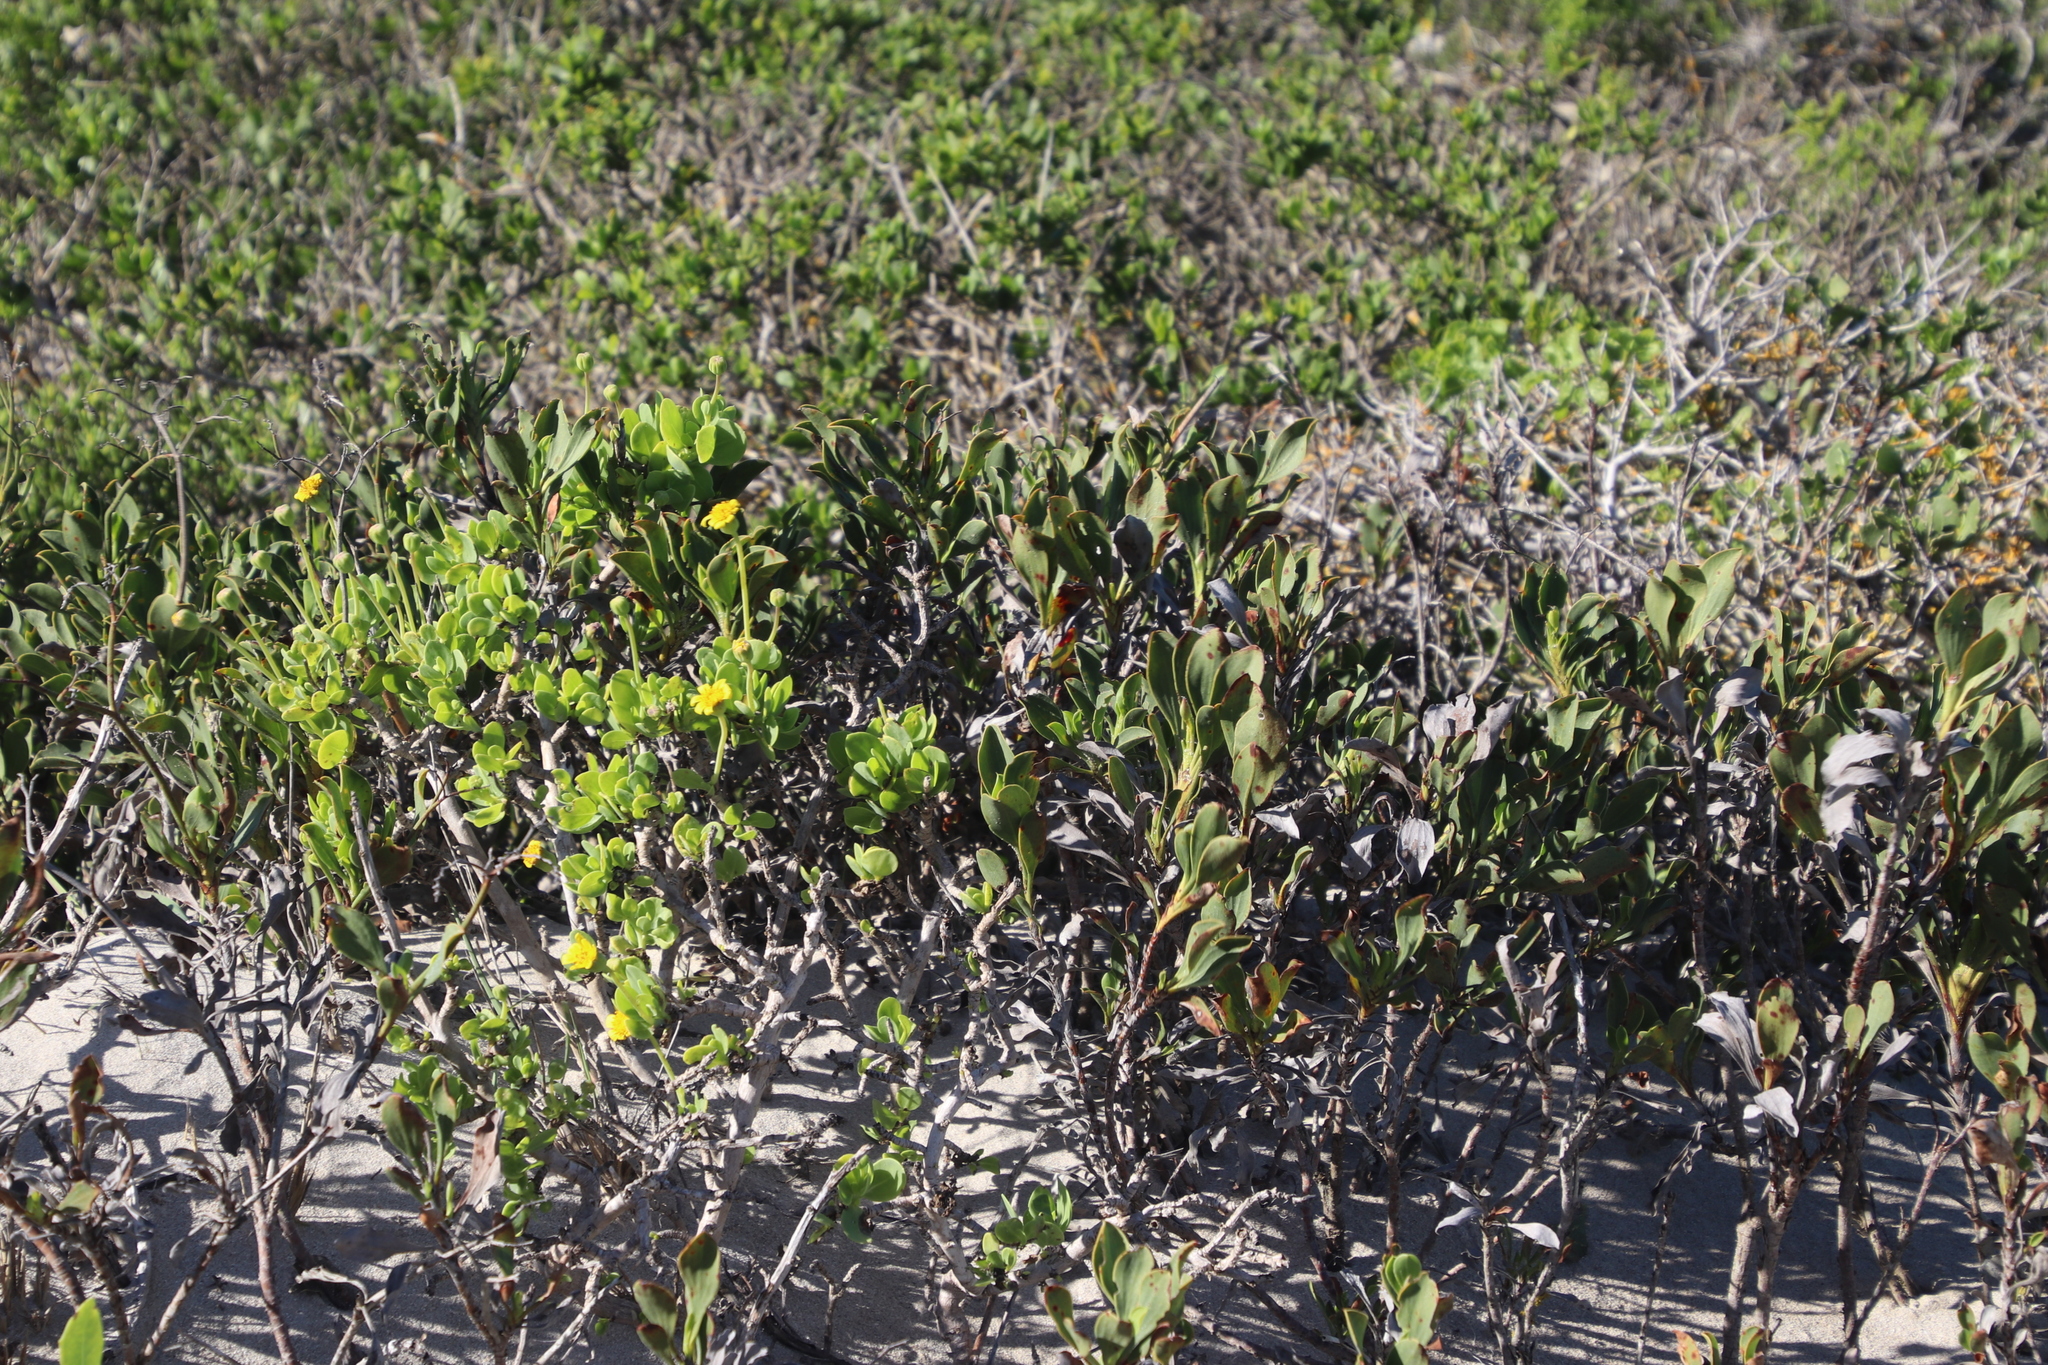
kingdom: Plantae
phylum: Tracheophyta
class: Magnoliopsida
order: Caryophyllales
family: Plumbaginaceae
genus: Limonium
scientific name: Limonium peregrinum
